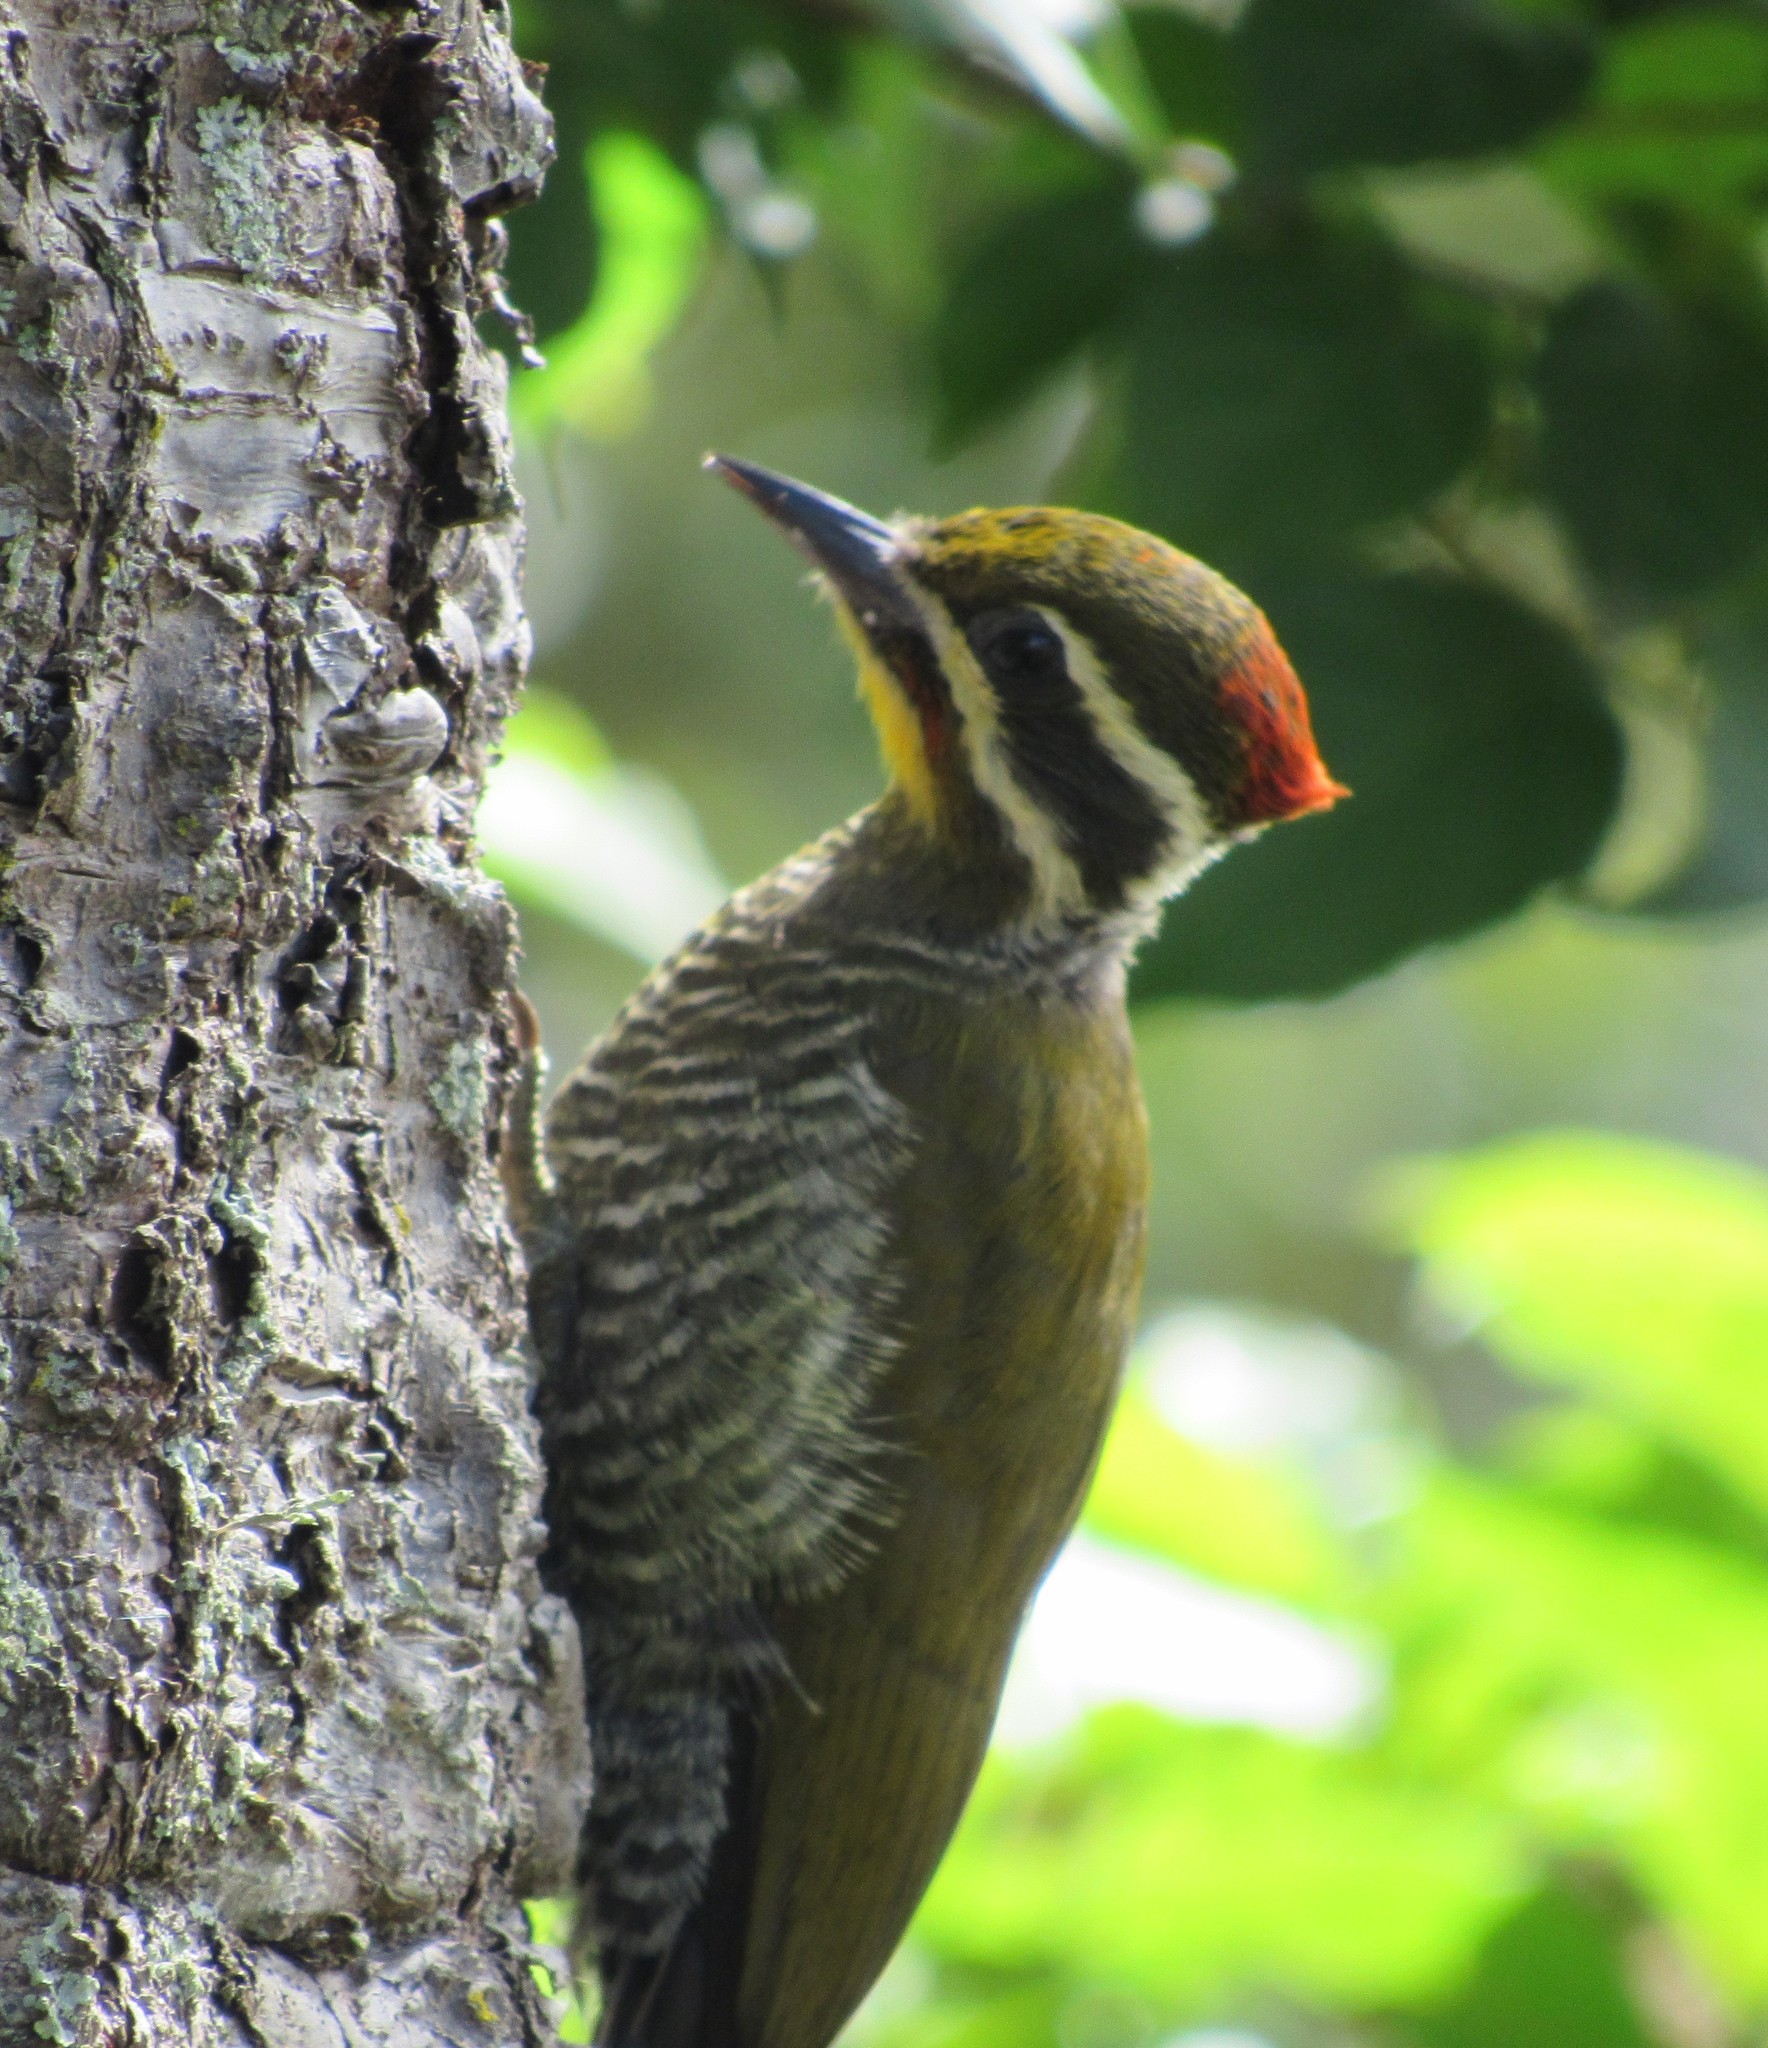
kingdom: Animalia
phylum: Chordata
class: Aves
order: Piciformes
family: Picidae
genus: Piculus
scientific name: Piculus aurulentus
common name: Yellow-browed woodpecker
